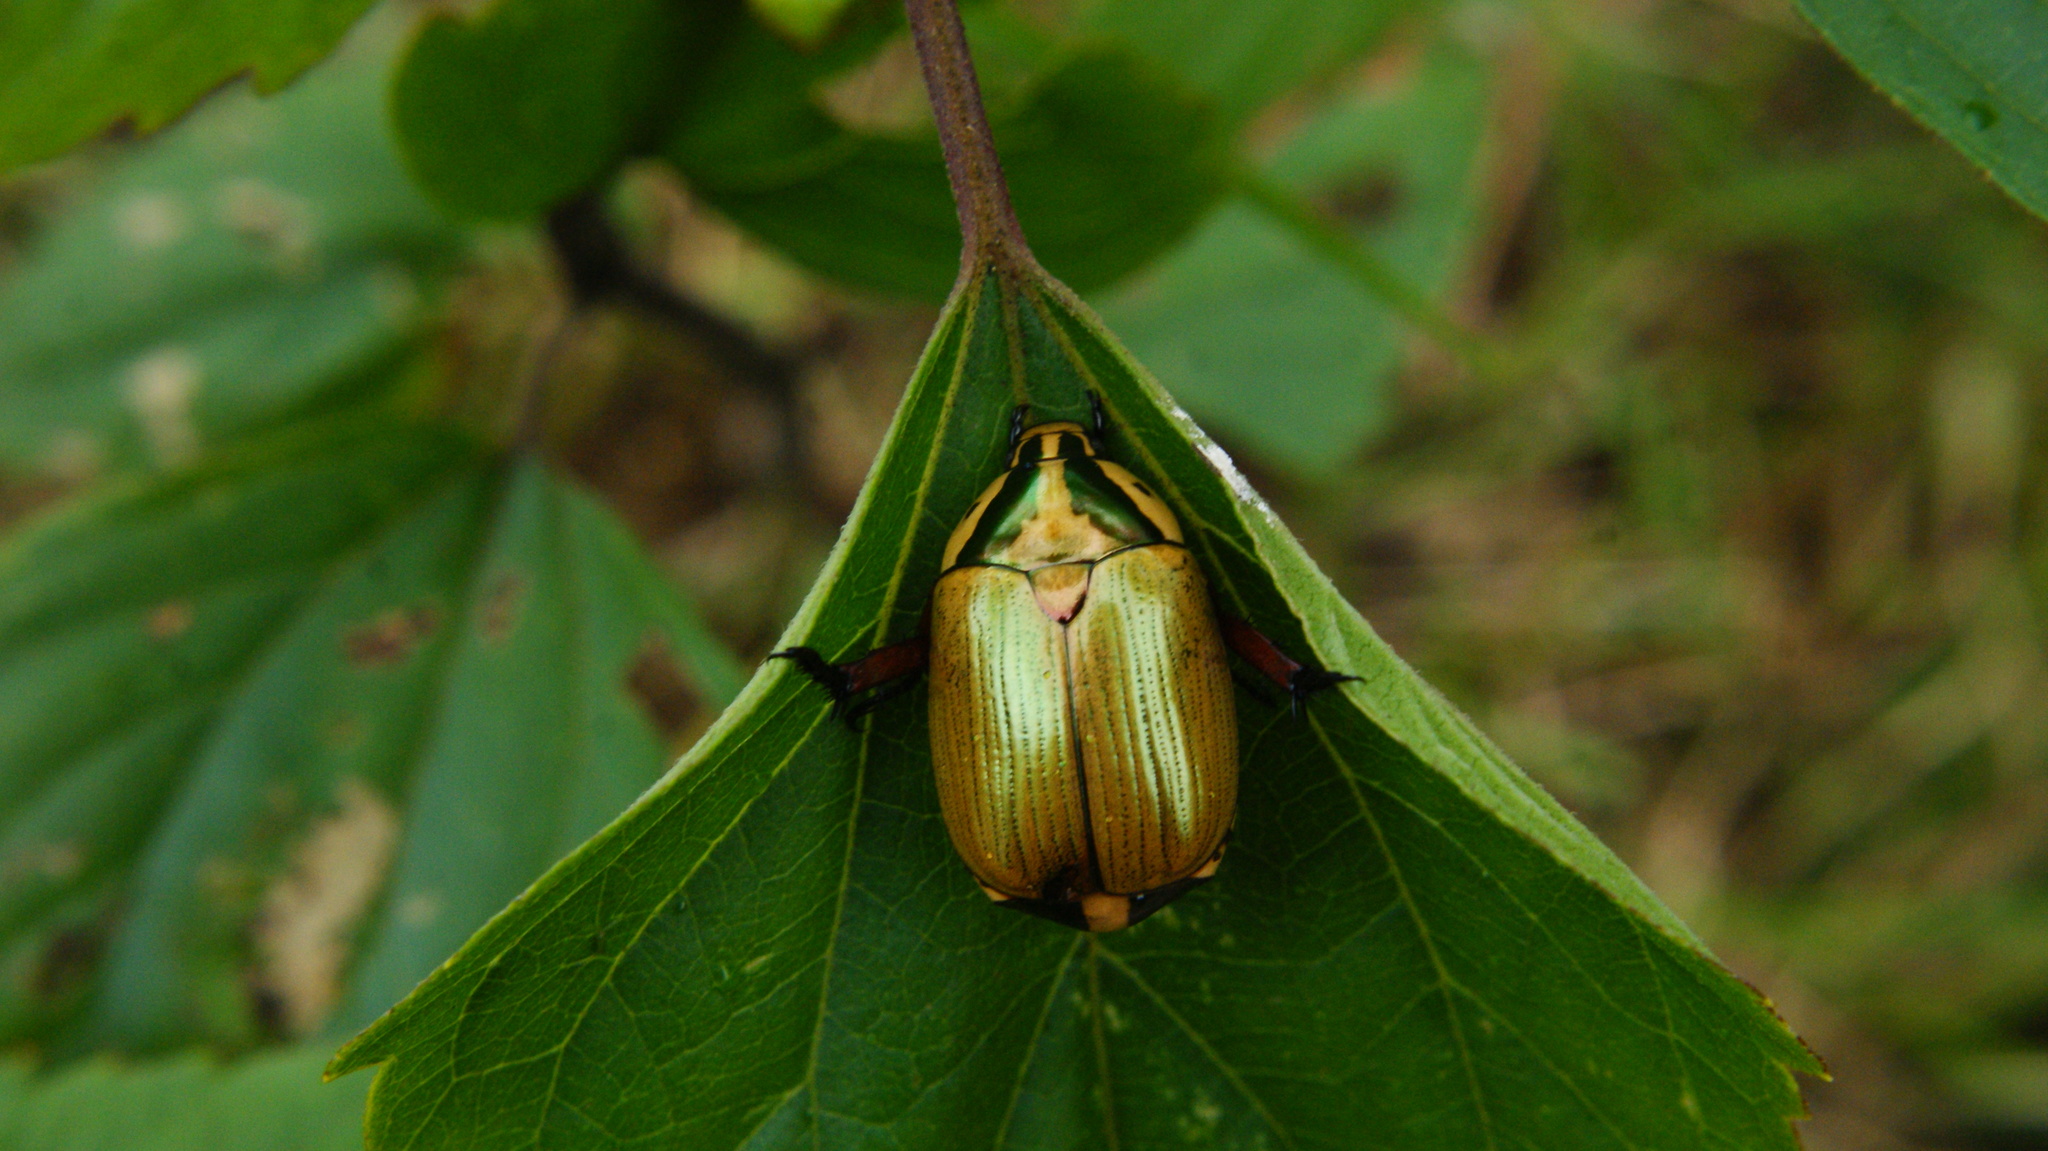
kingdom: Animalia
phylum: Arthropoda
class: Insecta
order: Coleoptera
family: Scarabaeidae
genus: Macropopillia
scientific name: Macropopillia arrowi
